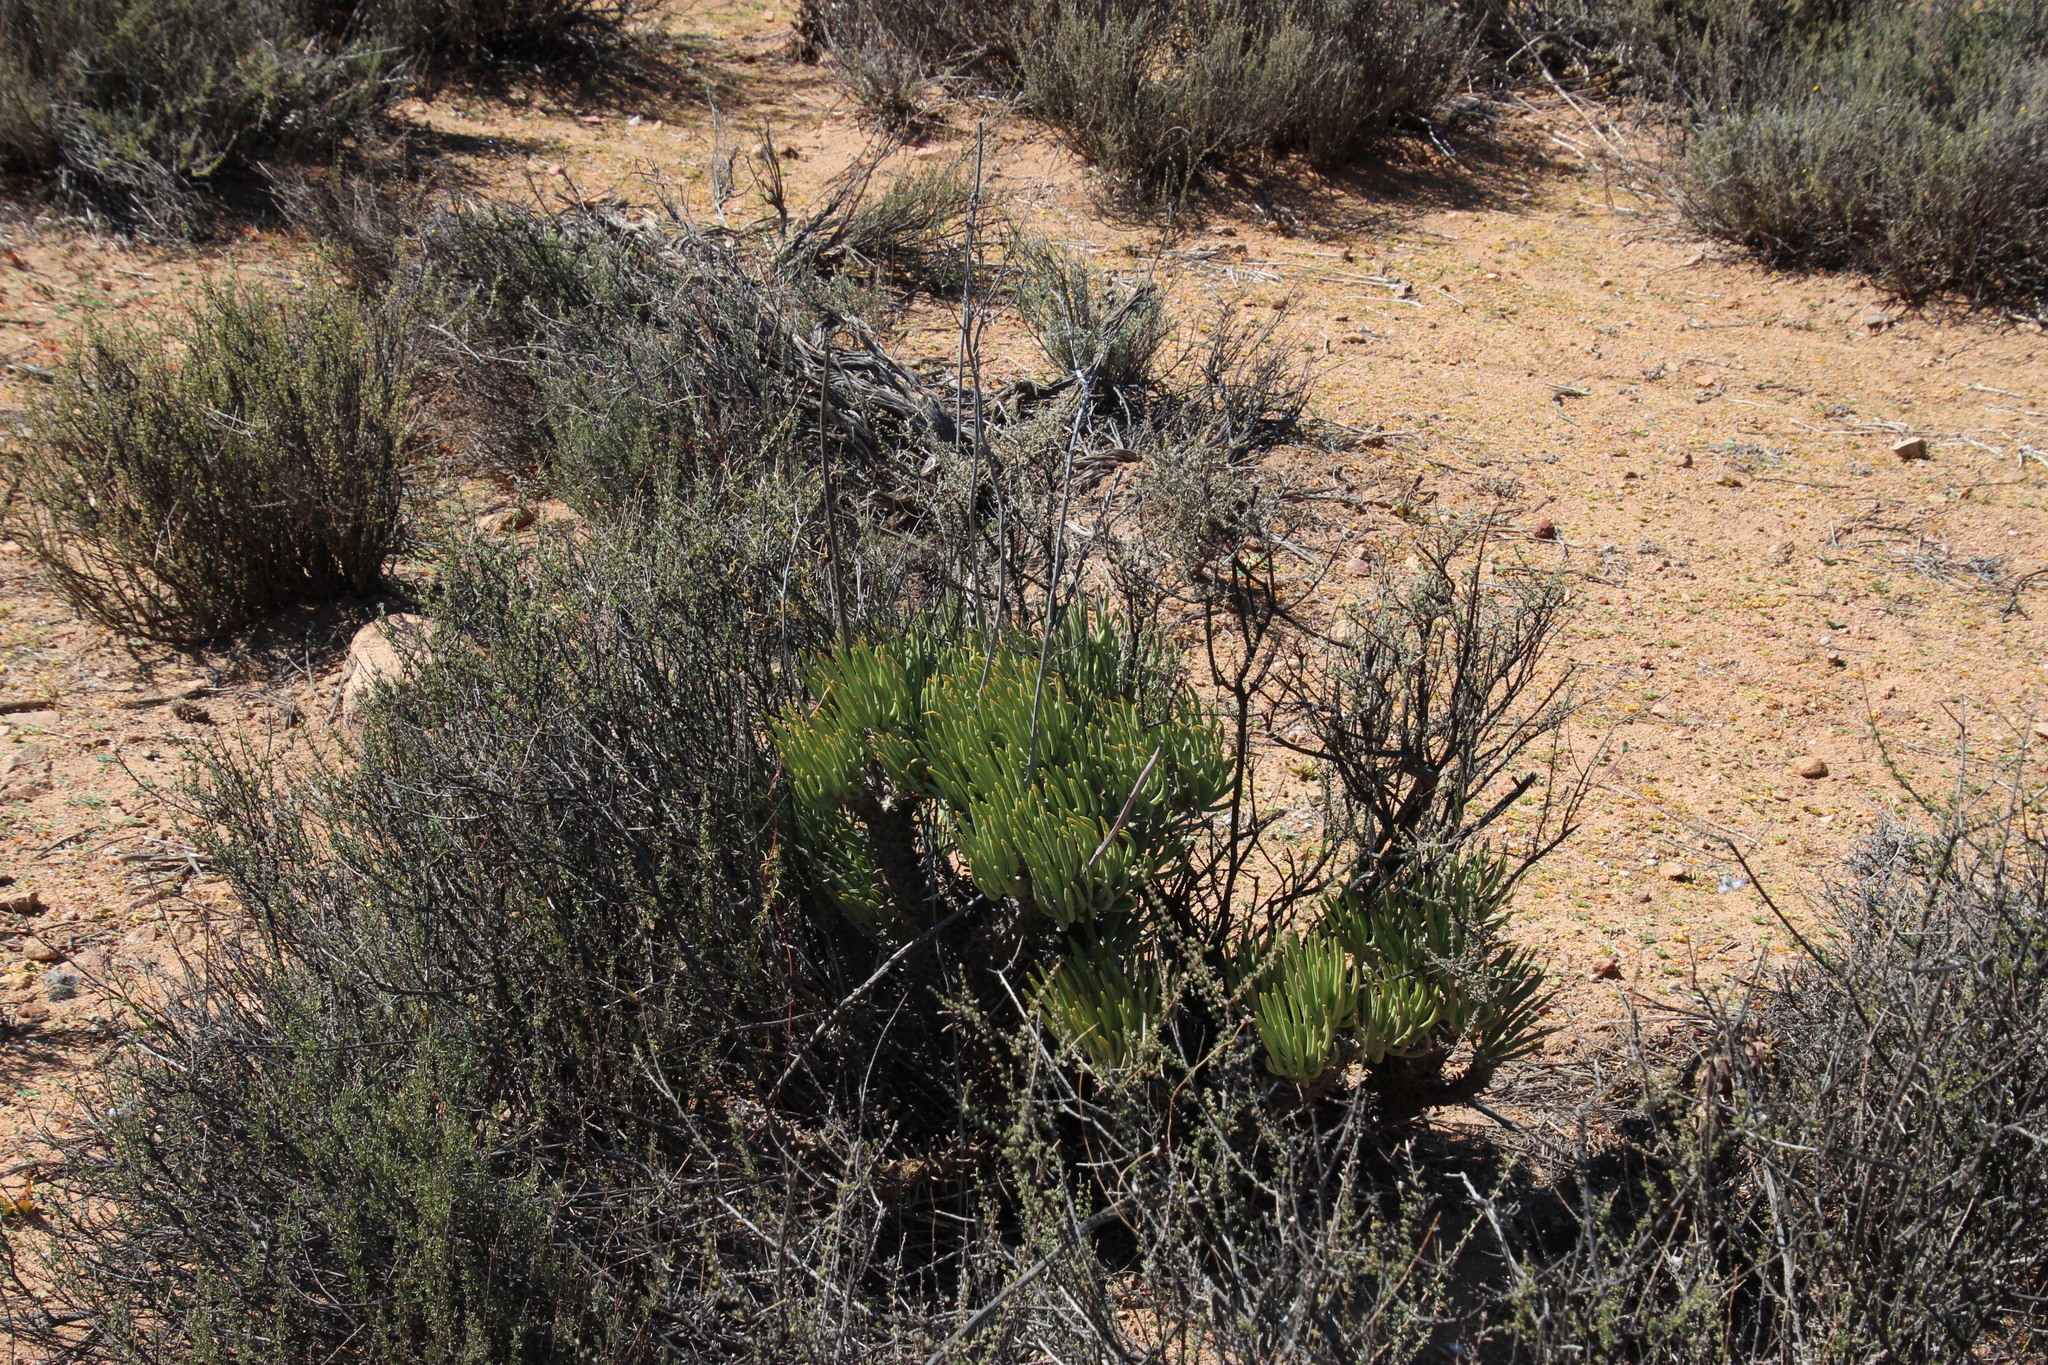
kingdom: Plantae
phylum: Tracheophyta
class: Magnoliopsida
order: Saxifragales
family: Crassulaceae
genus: Tylecodon
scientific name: Tylecodon wallichii
